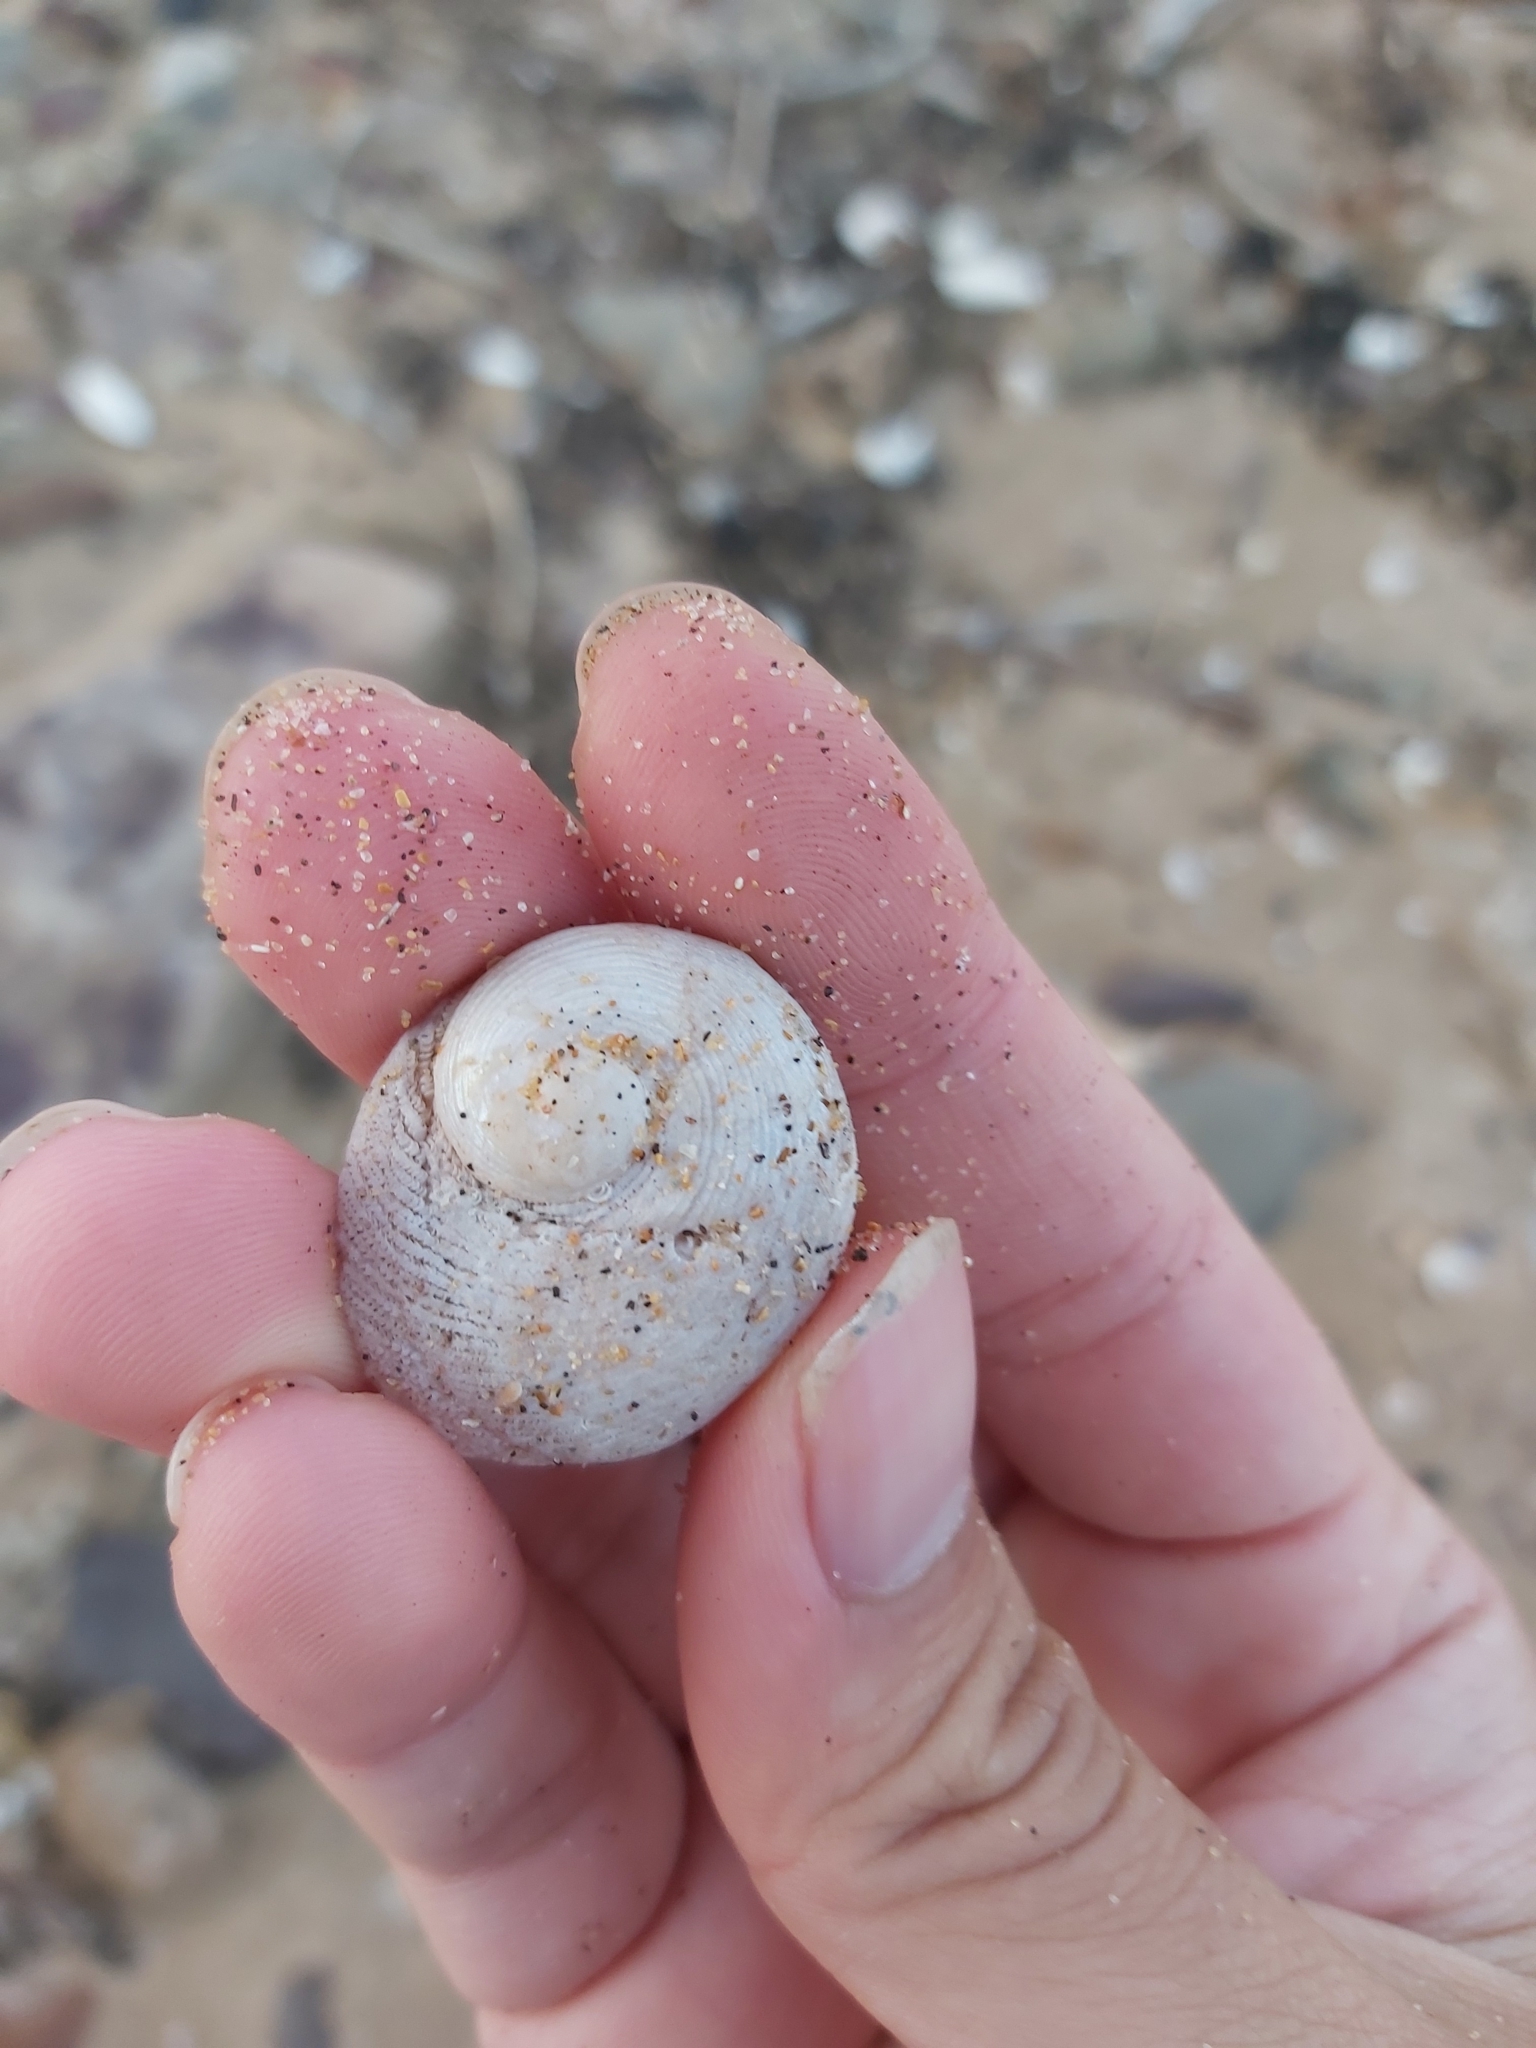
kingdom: Animalia
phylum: Mollusca
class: Gastropoda
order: Seguenziida
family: Chilodontaidae
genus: Granata
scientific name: Granata imbricata
